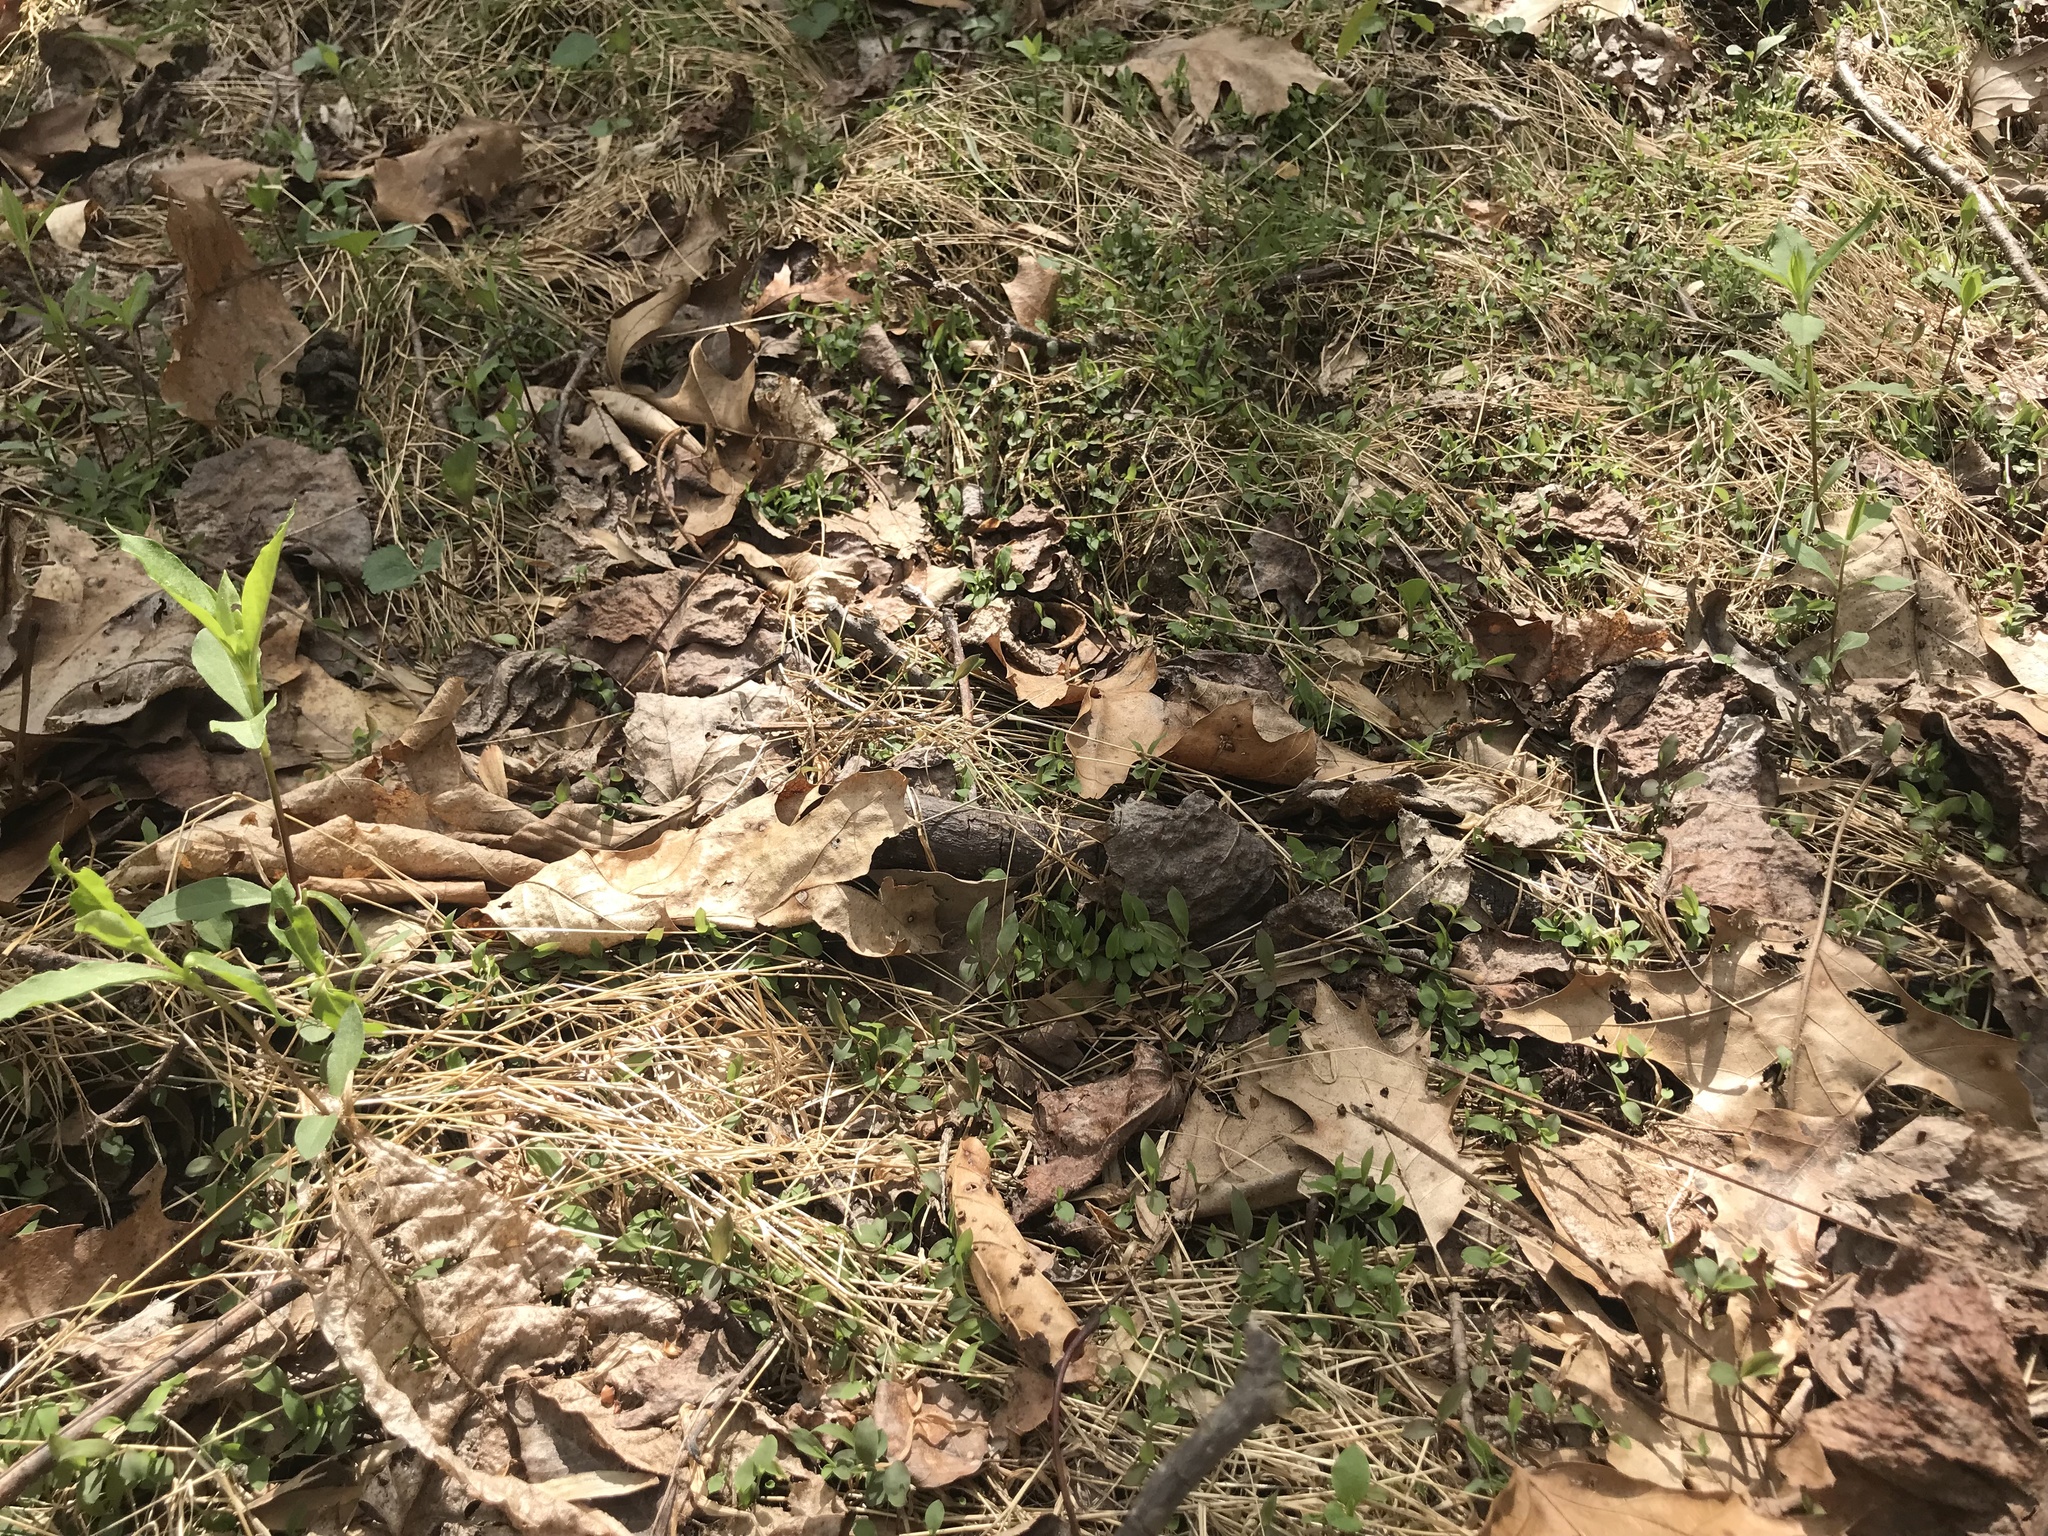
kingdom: Plantae
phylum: Tracheophyta
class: Liliopsida
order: Poales
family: Poaceae
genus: Microstegium
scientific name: Microstegium vimineum
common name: Japanese stiltgrass
